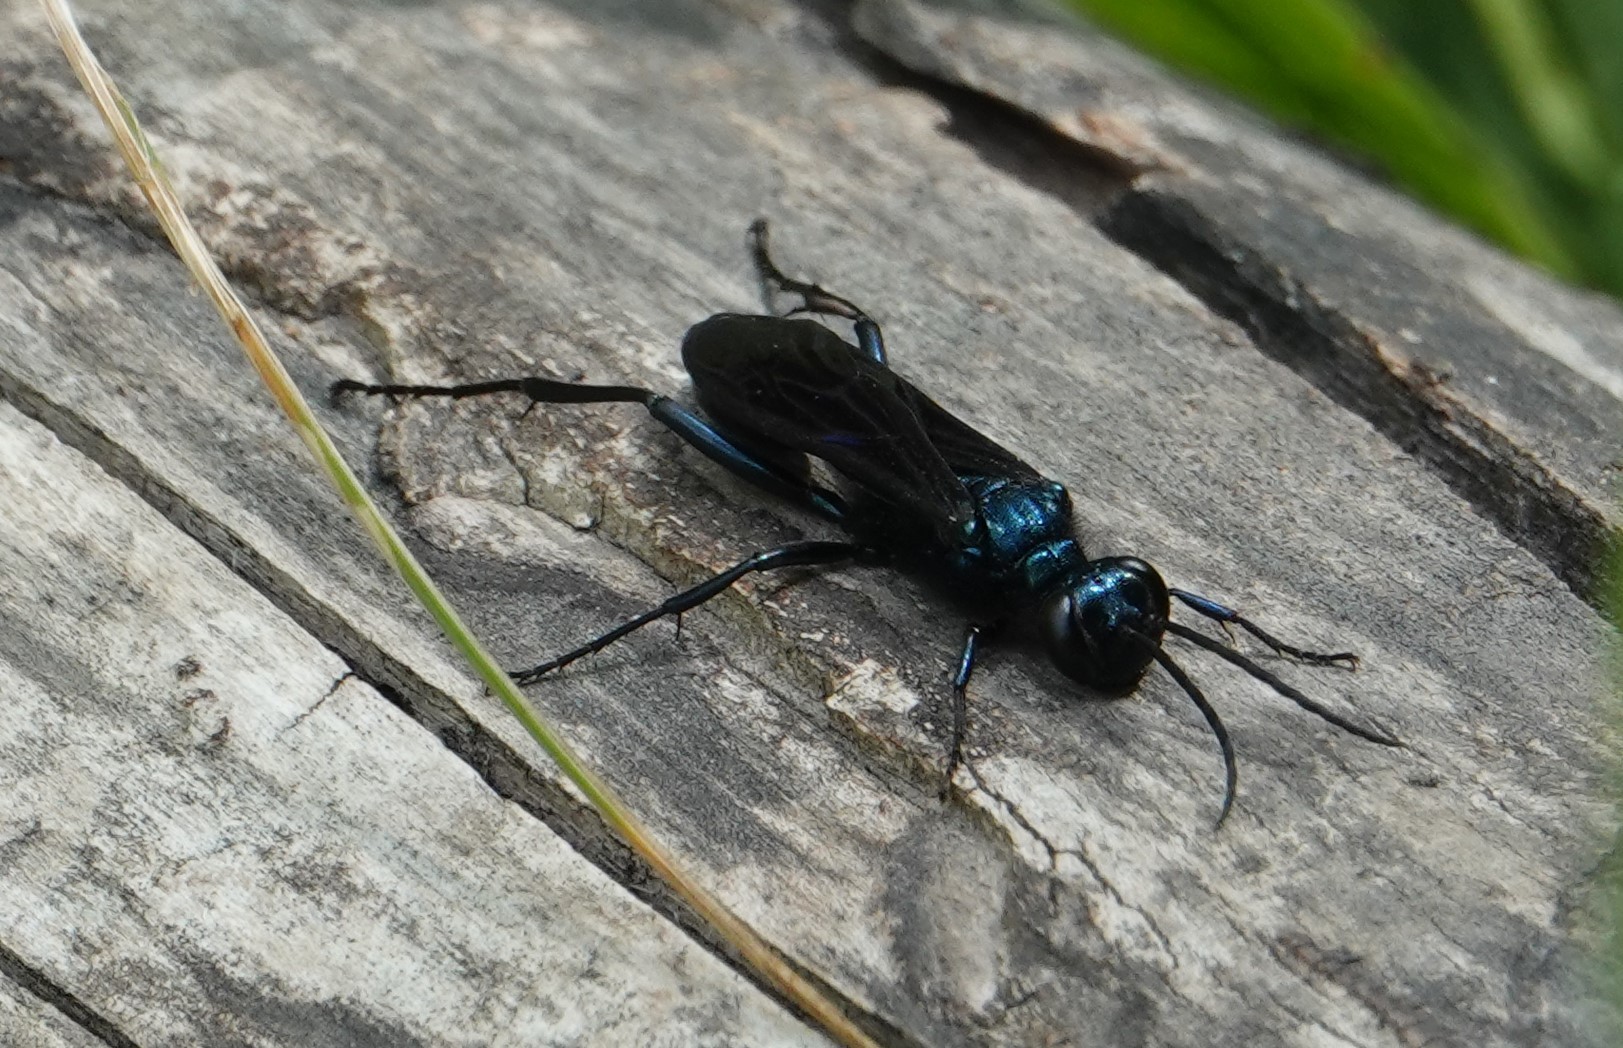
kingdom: Animalia
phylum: Arthropoda
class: Insecta
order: Hymenoptera
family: Sphecidae
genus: Chalybion
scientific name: Chalybion californicum
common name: Mud dauber
